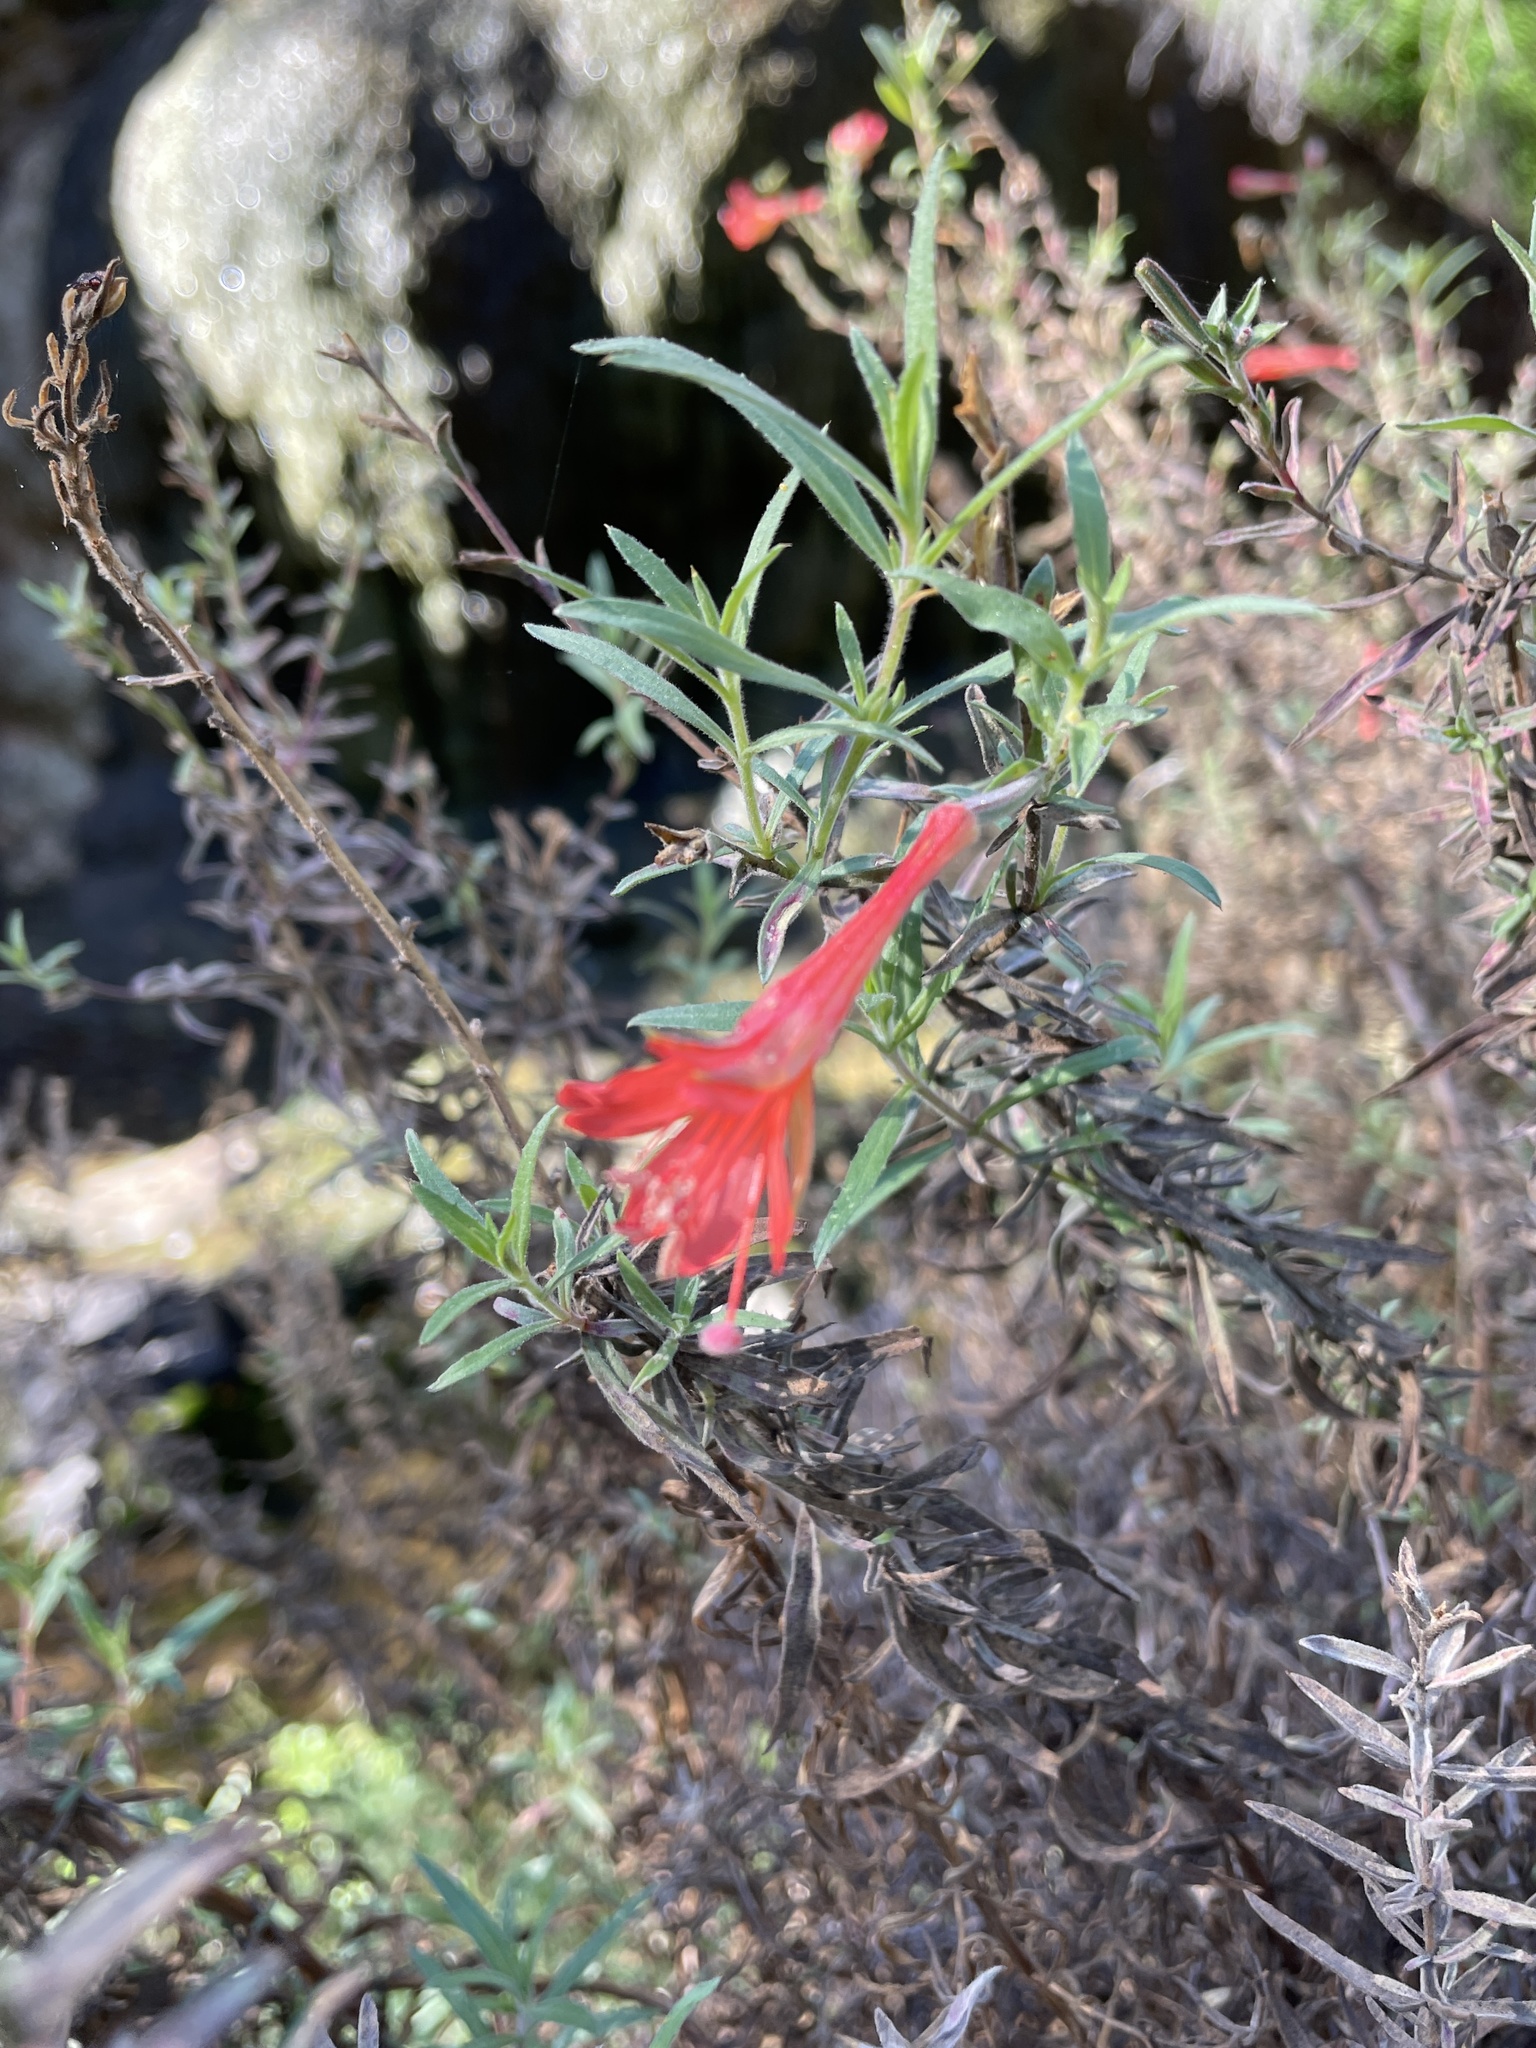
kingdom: Plantae
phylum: Tracheophyta
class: Magnoliopsida
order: Myrtales
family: Onagraceae
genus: Epilobium
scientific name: Epilobium canum
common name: California-fuchsia
